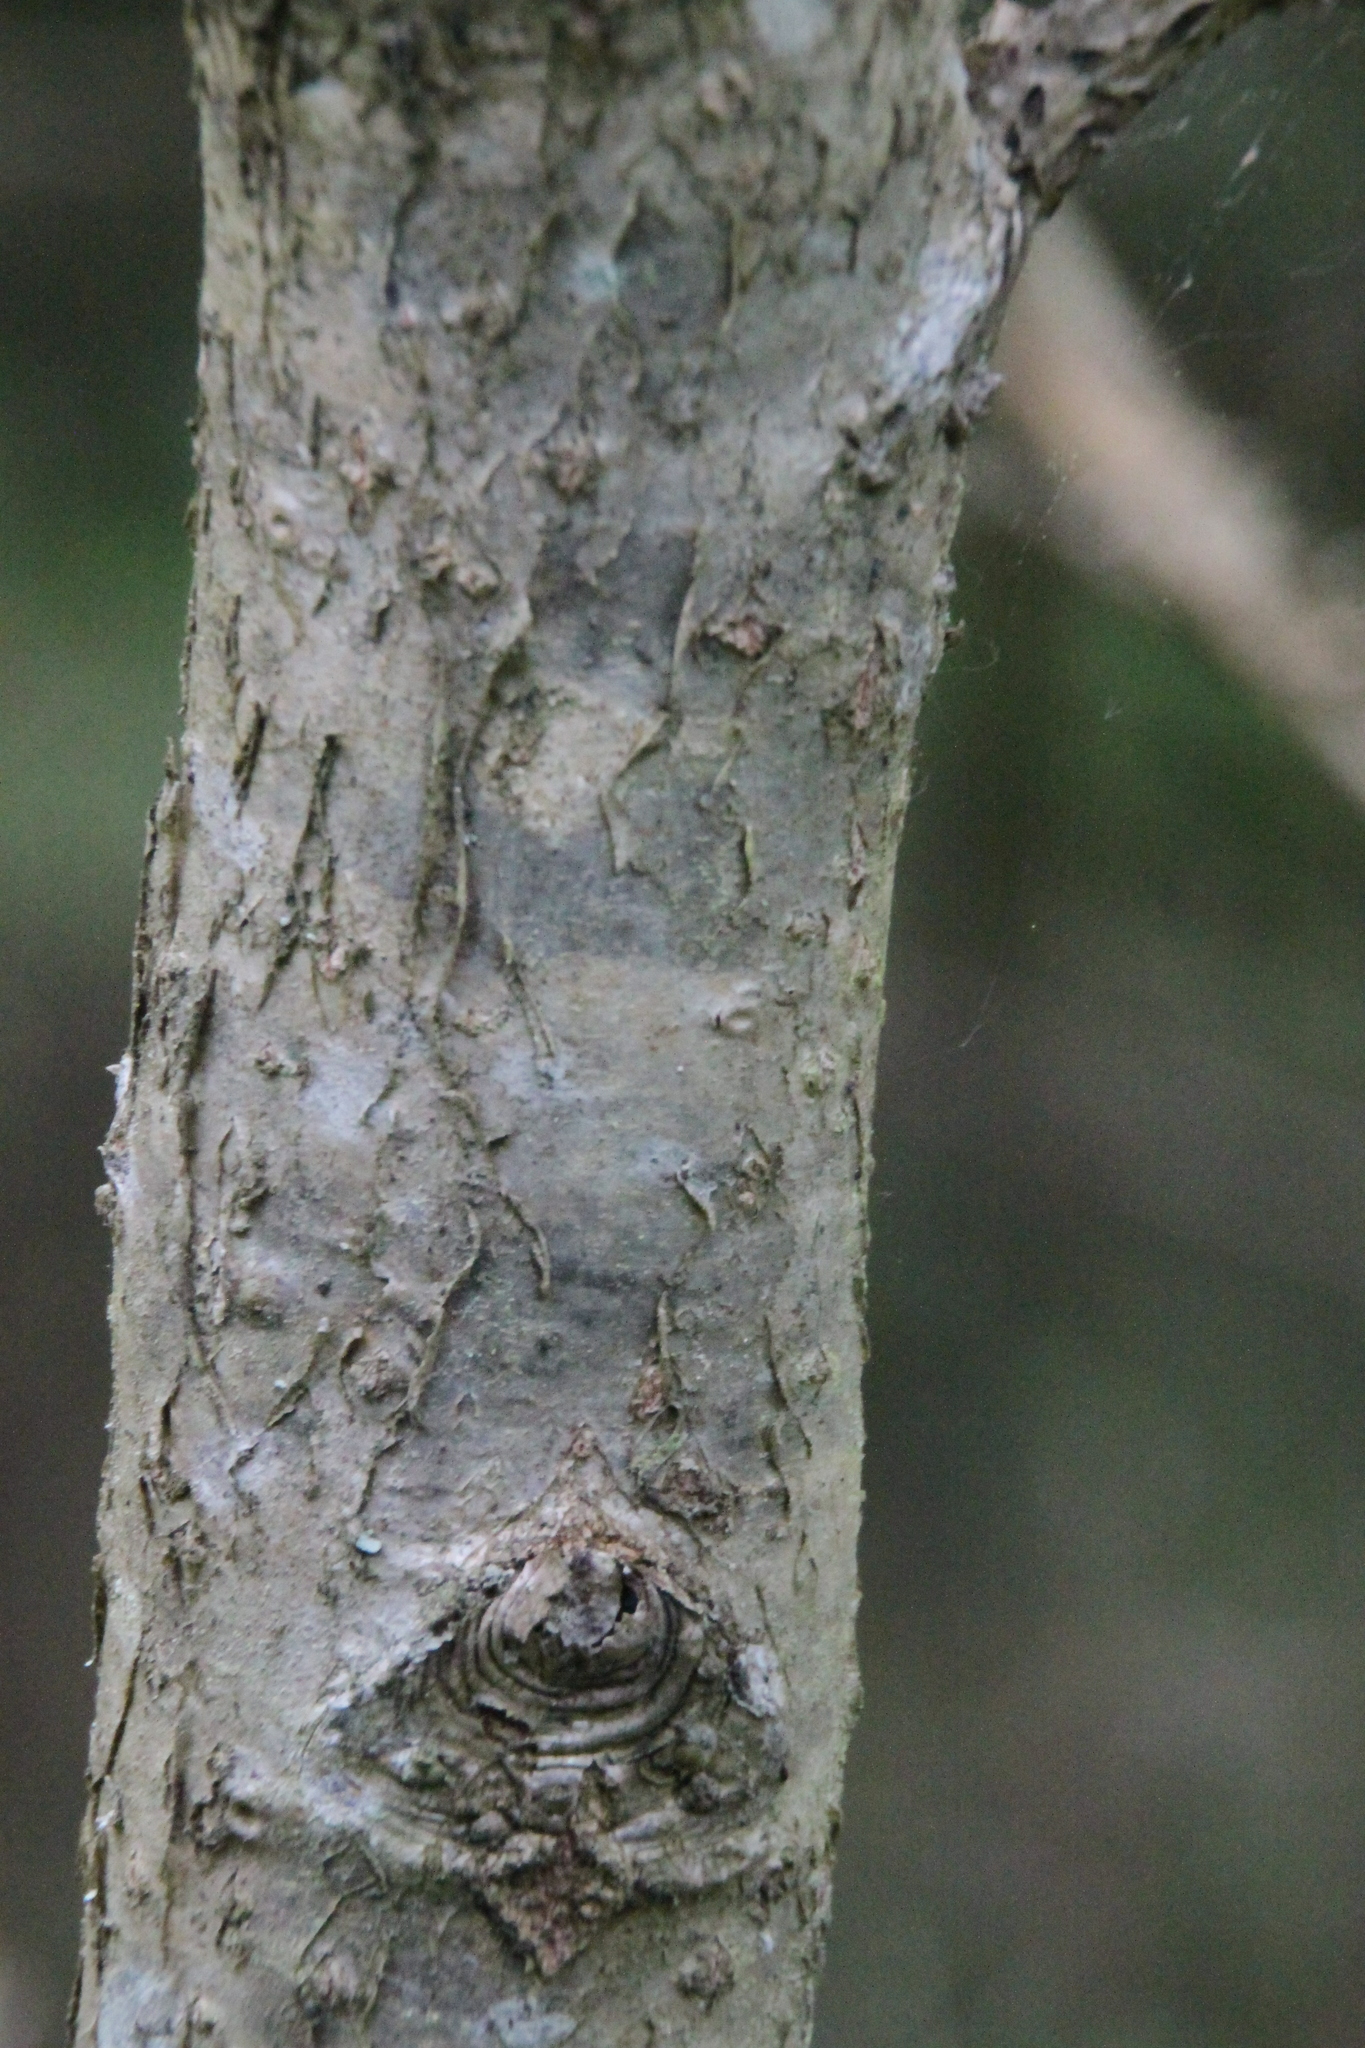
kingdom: Plantae
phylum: Tracheophyta
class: Magnoliopsida
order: Fagales
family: Fagaceae
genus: Quercus
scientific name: Quercus robur
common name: Pedunculate oak
